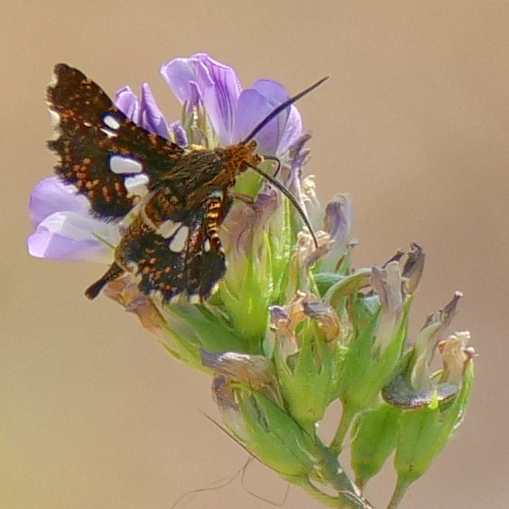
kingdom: Animalia
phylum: Arthropoda
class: Insecta
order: Lepidoptera
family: Thyrididae
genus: Thyris
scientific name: Thyris fenestrella
